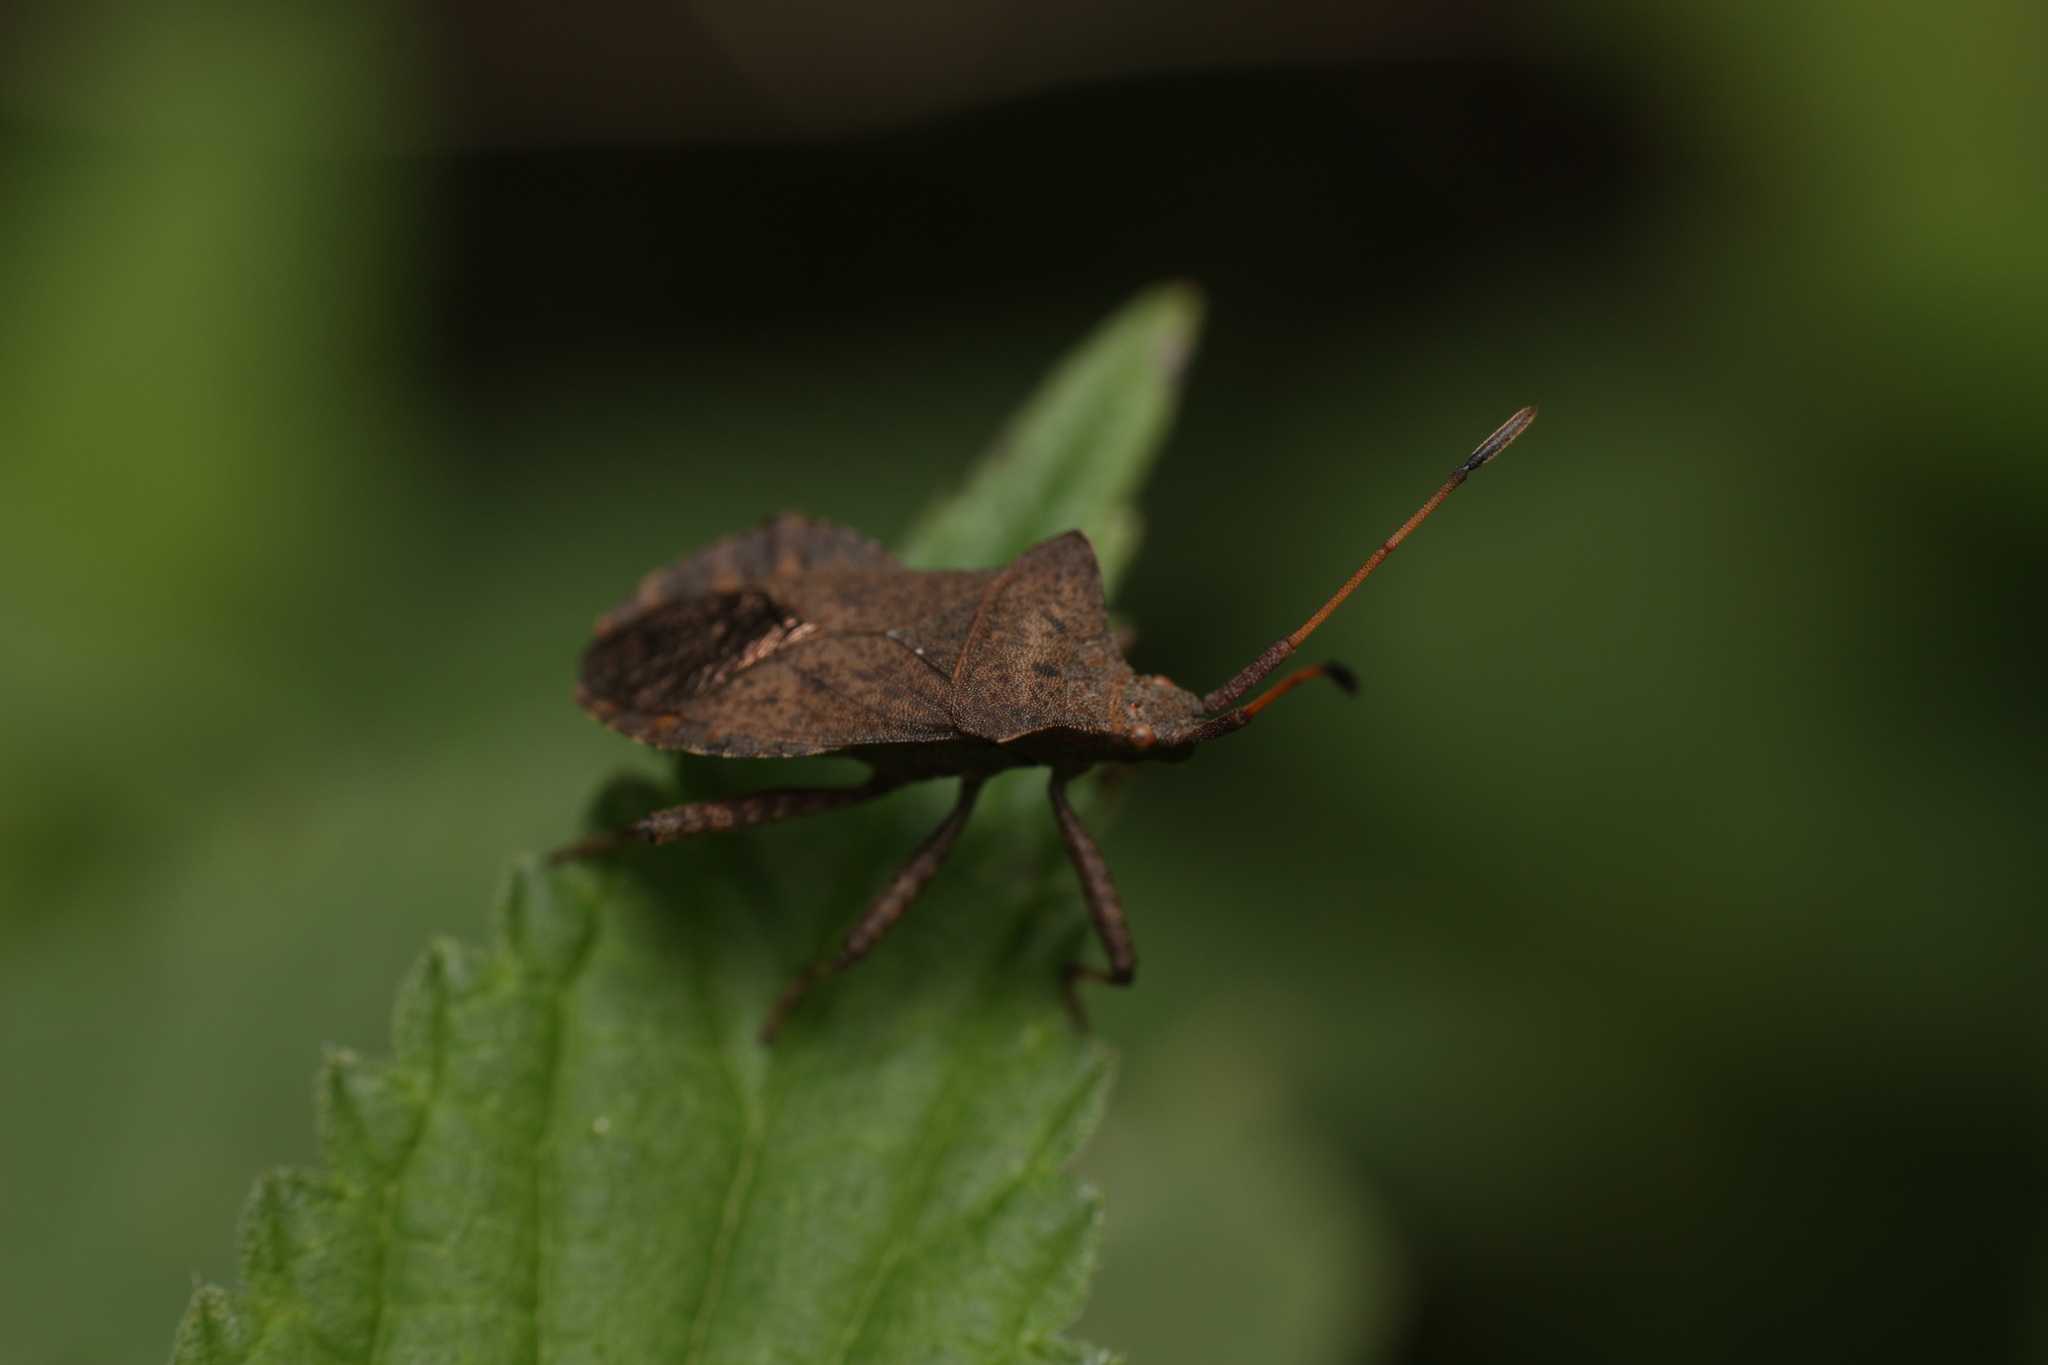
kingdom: Animalia
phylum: Arthropoda
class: Insecta
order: Hemiptera
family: Coreidae
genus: Coreus
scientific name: Coreus marginatus
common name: Dock bug
